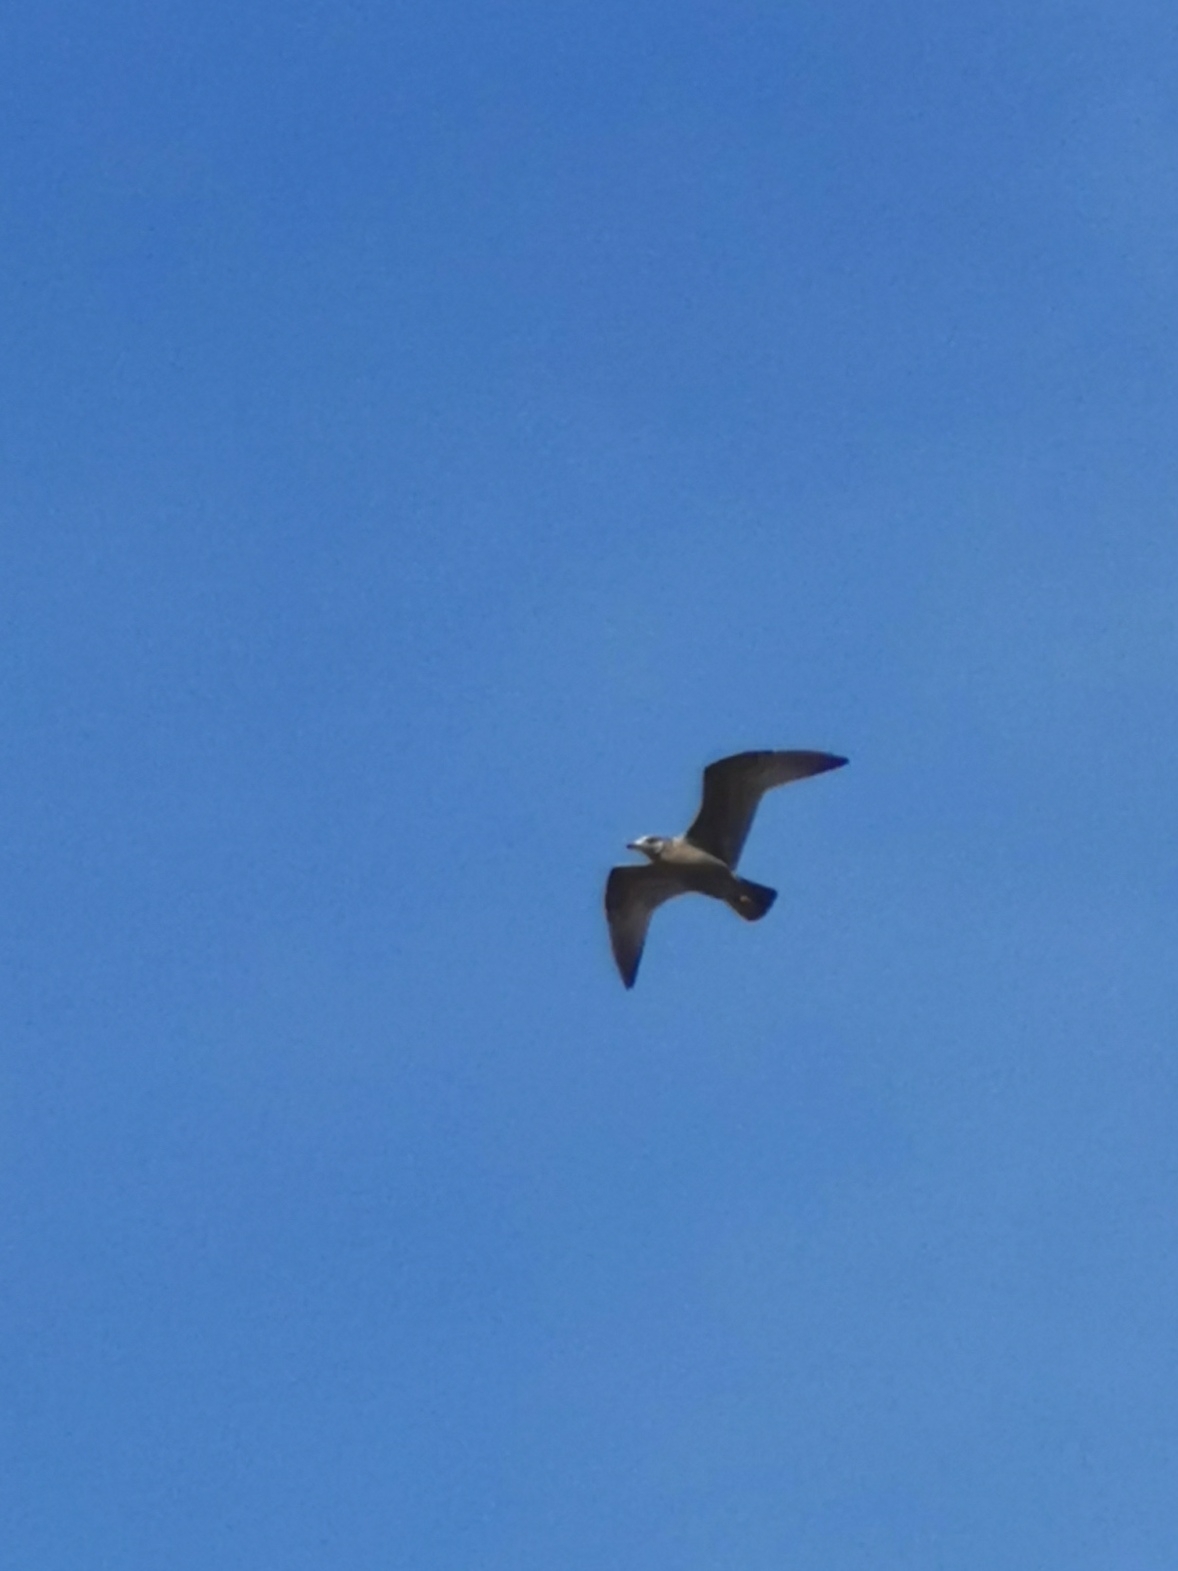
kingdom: Animalia
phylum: Chordata
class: Aves
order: Charadriiformes
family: Laridae
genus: Larus
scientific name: Larus argentatus
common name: Herring gull
